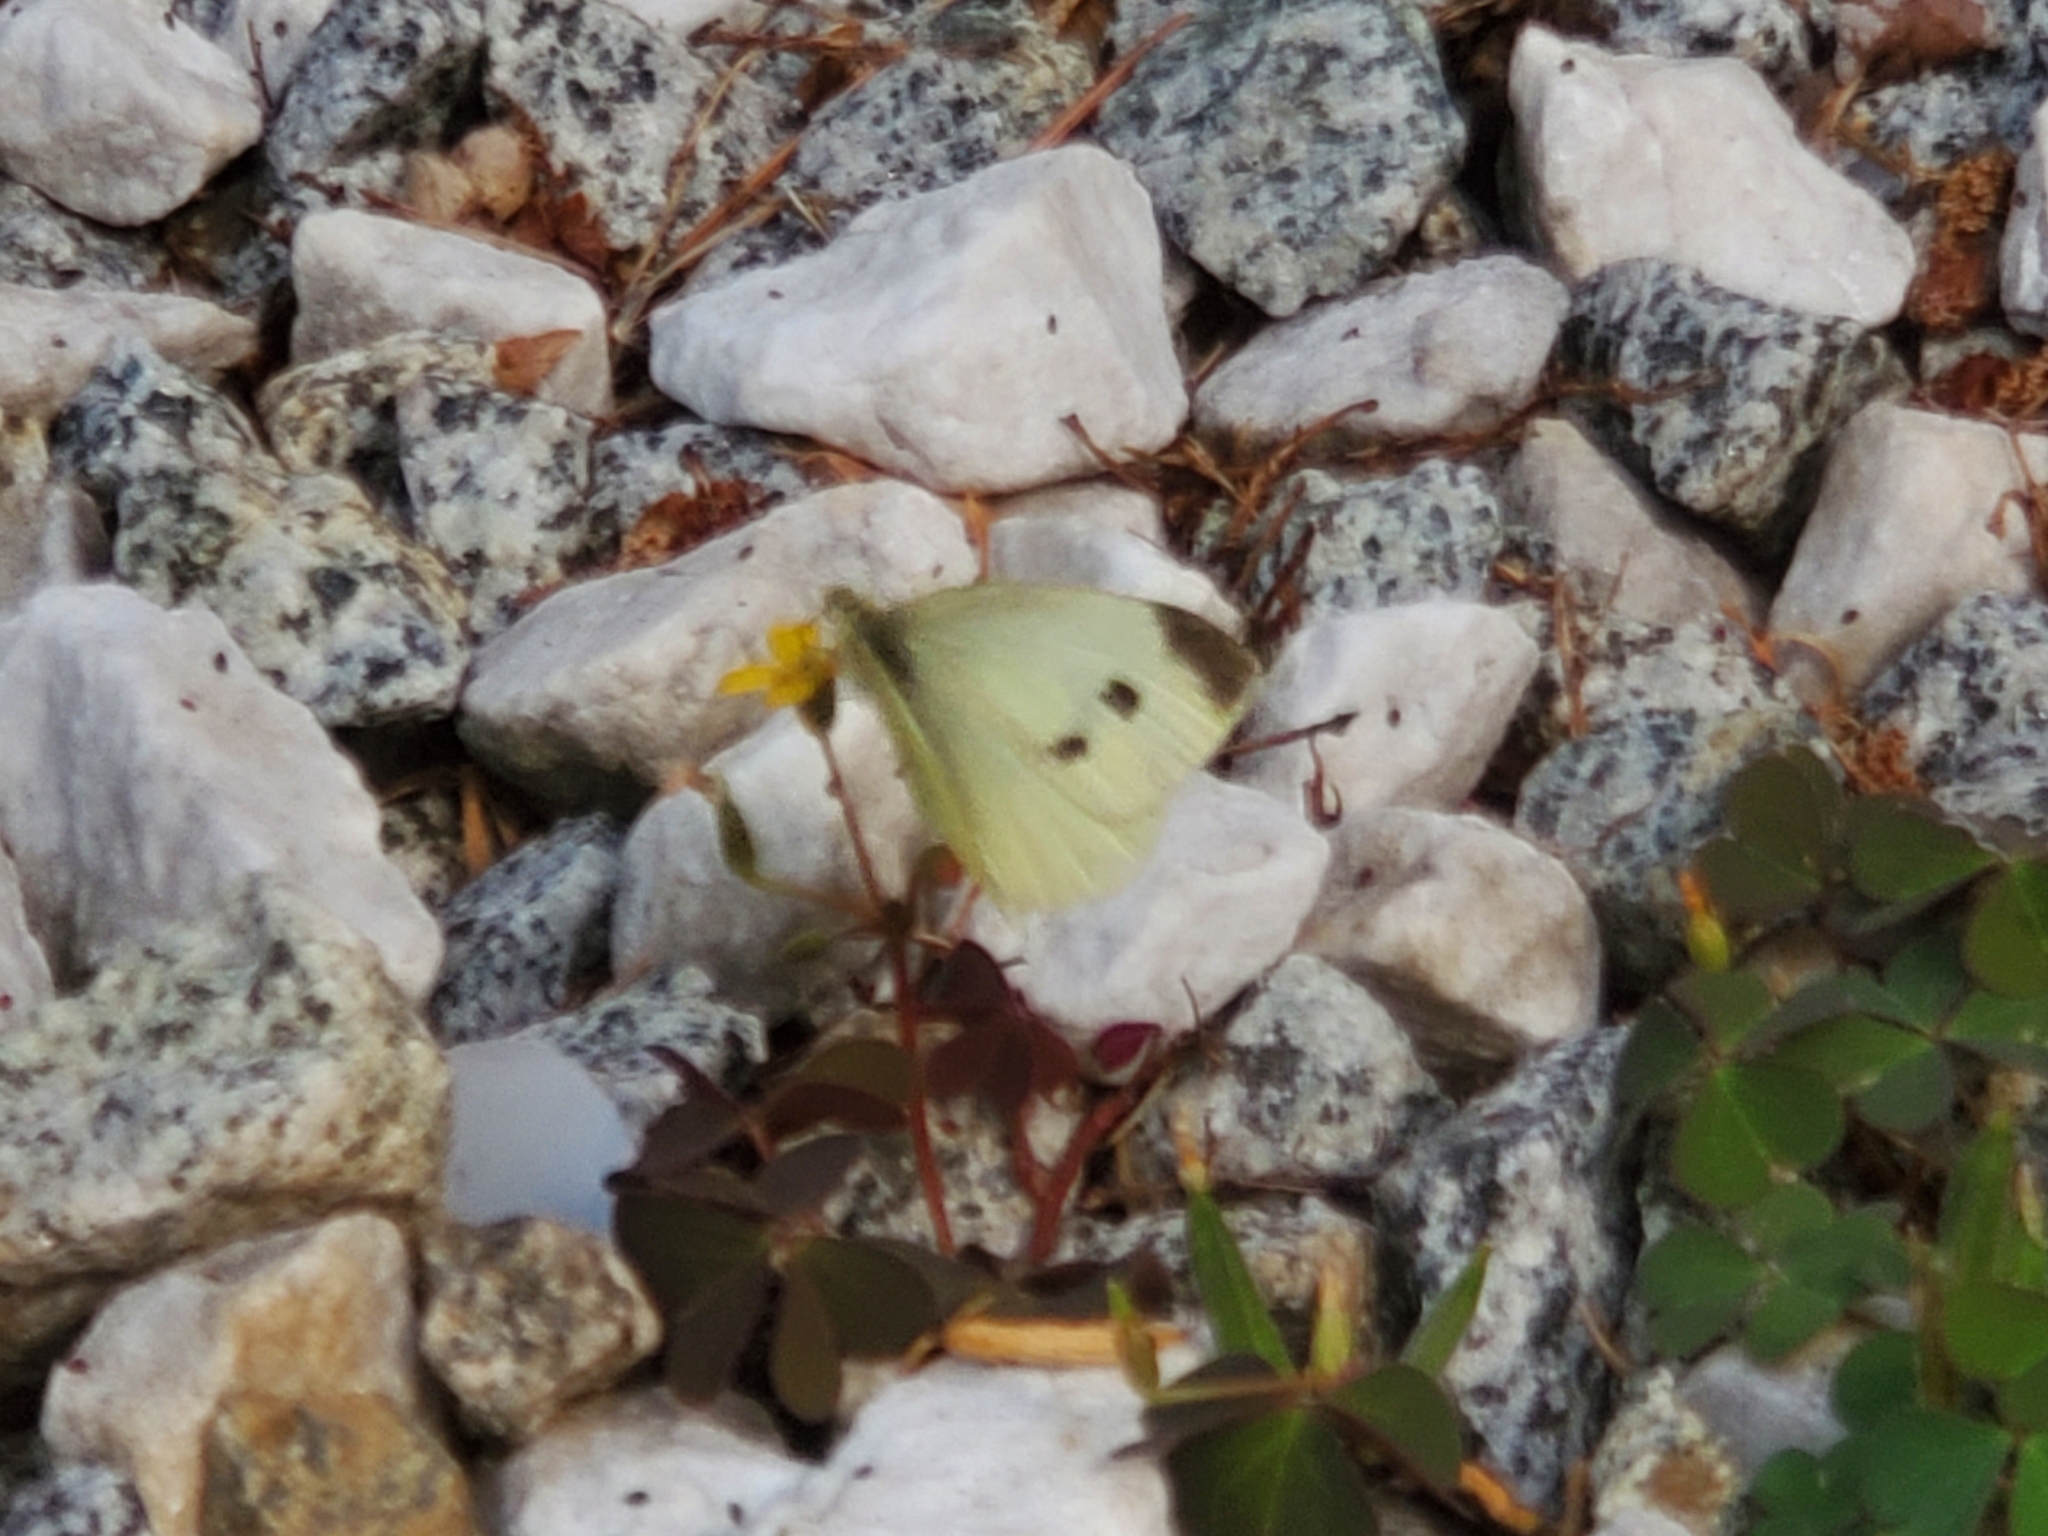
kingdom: Animalia
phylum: Arthropoda
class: Insecta
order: Lepidoptera
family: Pieridae
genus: Pieris
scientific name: Pieris rapae
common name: Small white
